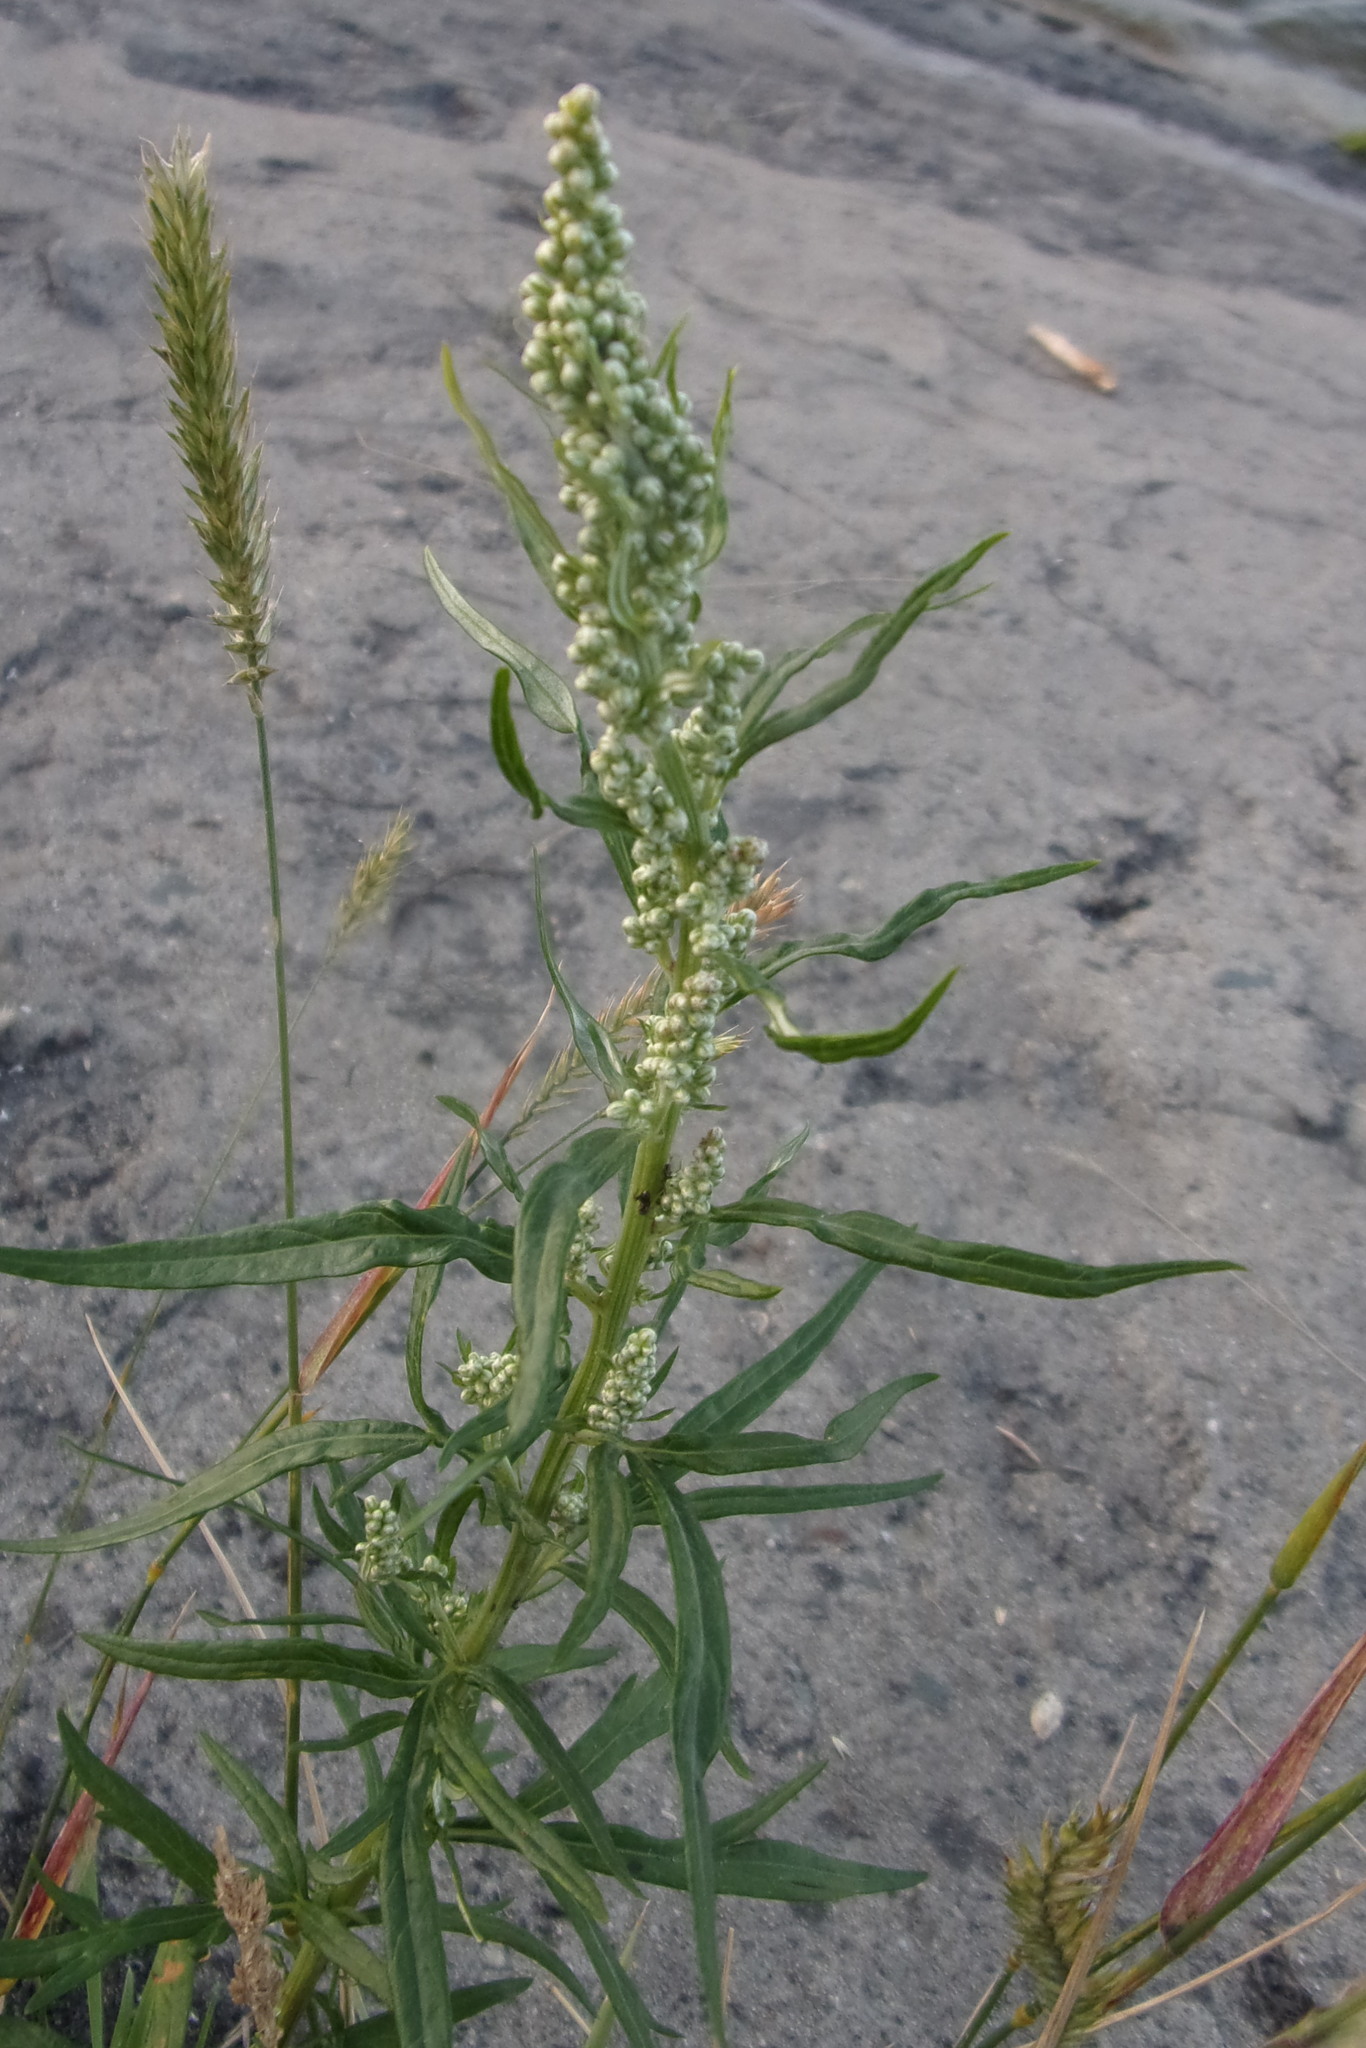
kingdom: Plantae
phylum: Tracheophyta
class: Magnoliopsida
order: Asterales
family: Asteraceae
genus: Artemisia
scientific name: Artemisia vulgaris
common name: Mugwort
